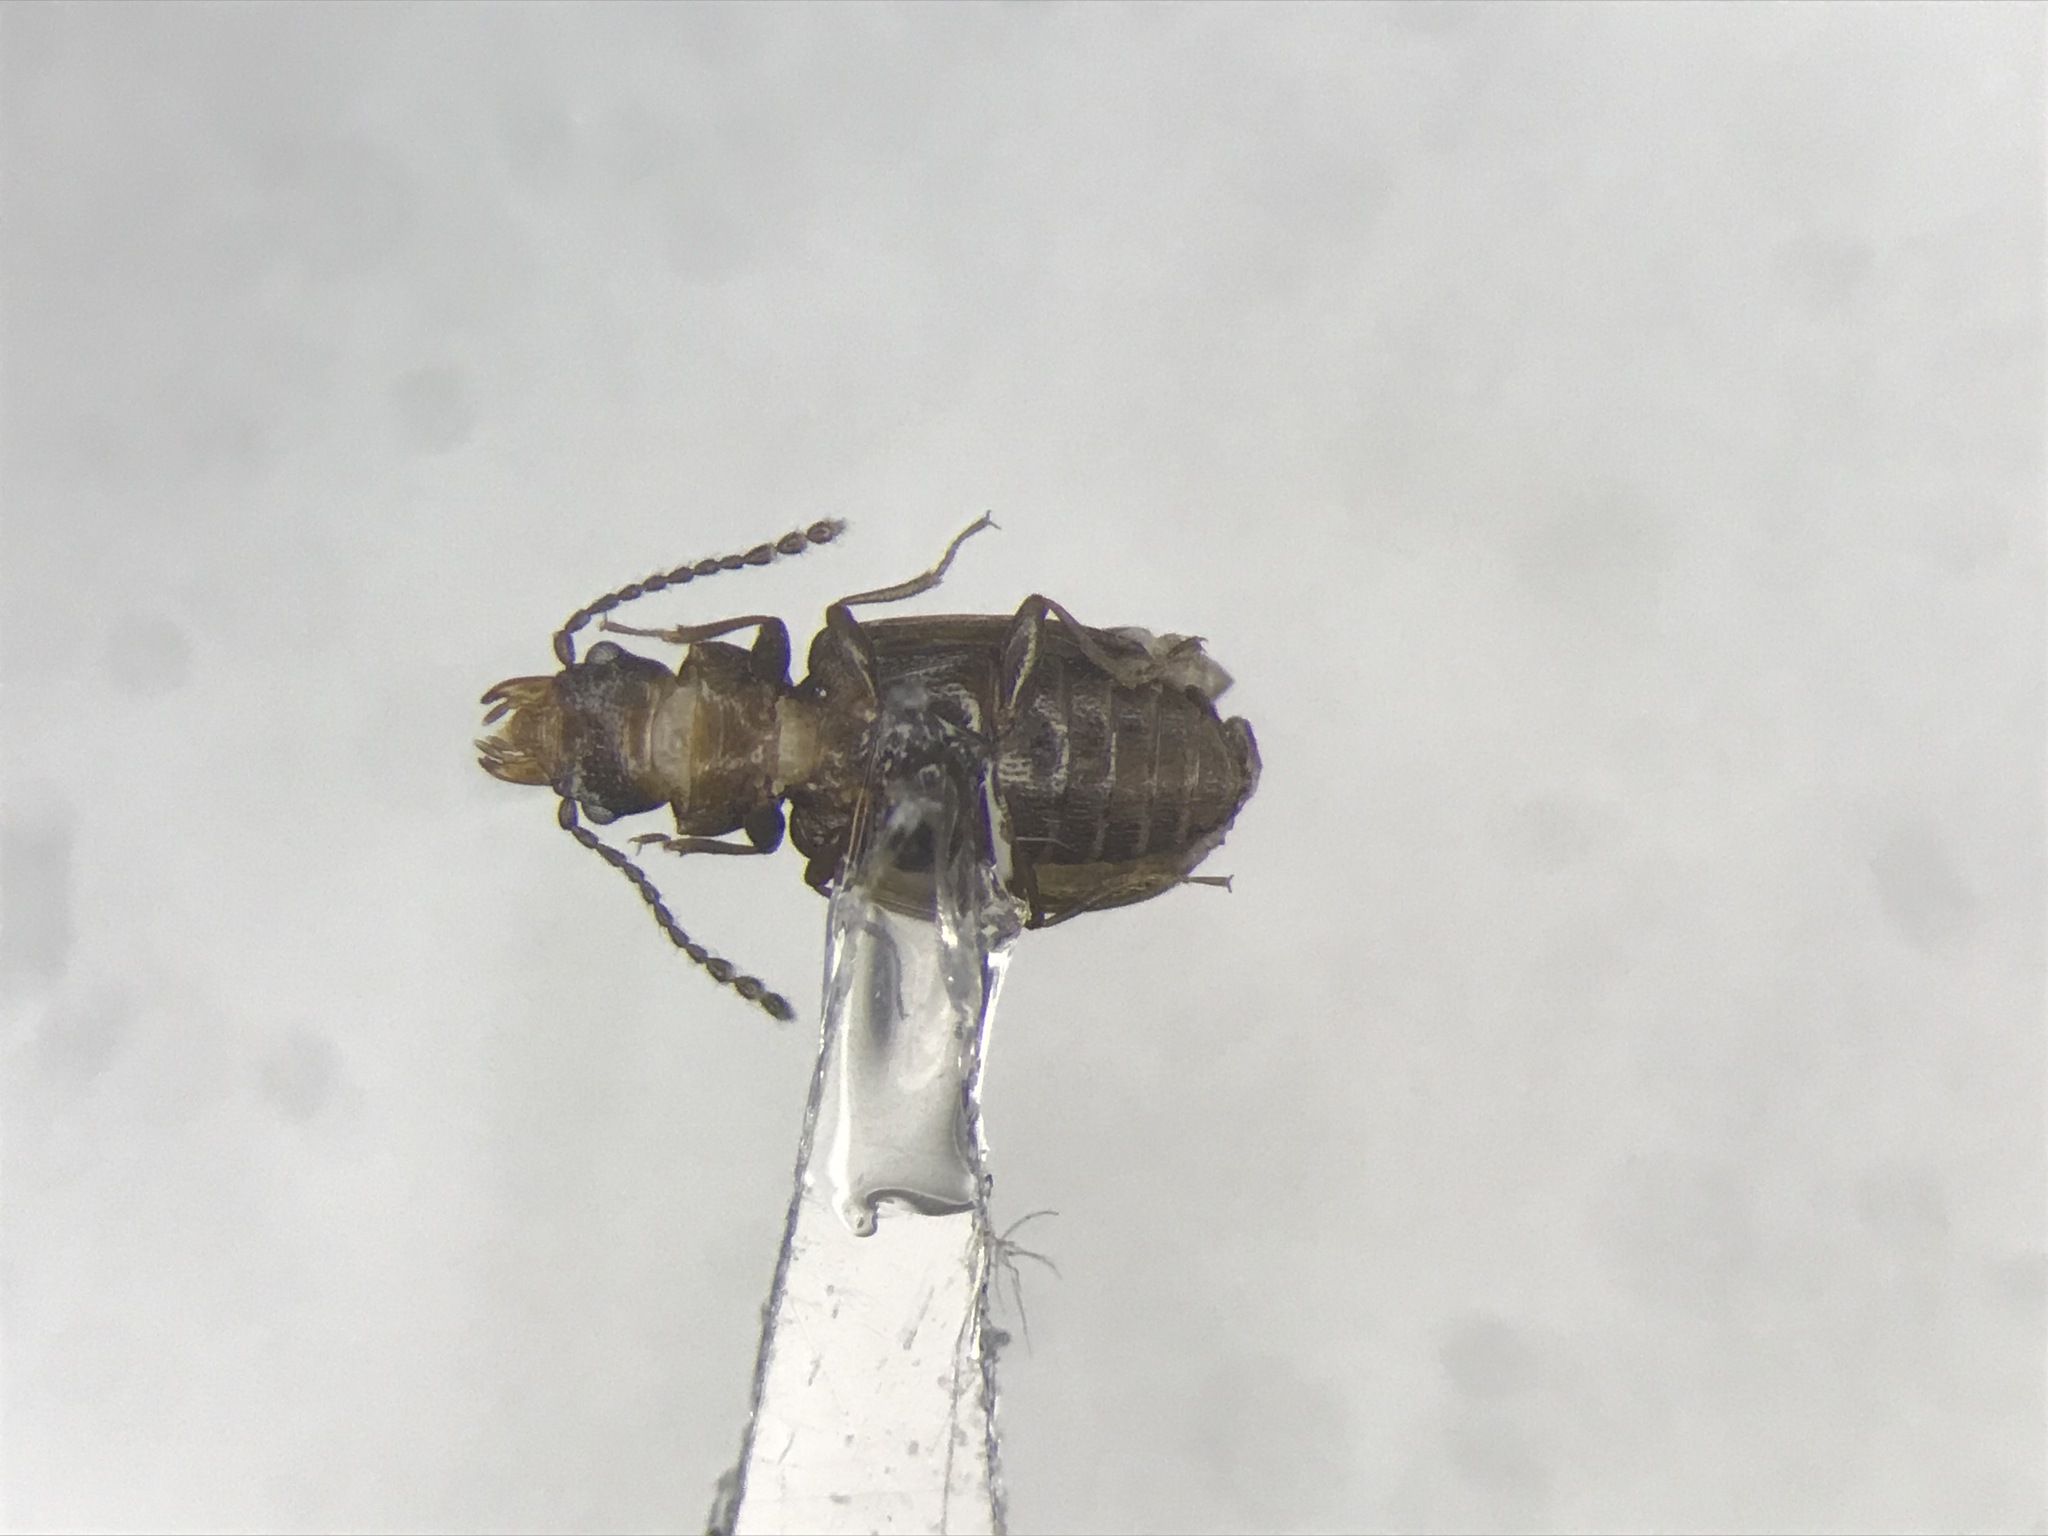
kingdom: Animalia
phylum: Arthropoda
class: Insecta
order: Coleoptera
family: Laemophloeidae
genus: Charaphloeus
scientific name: Charaphloeus convexulus
